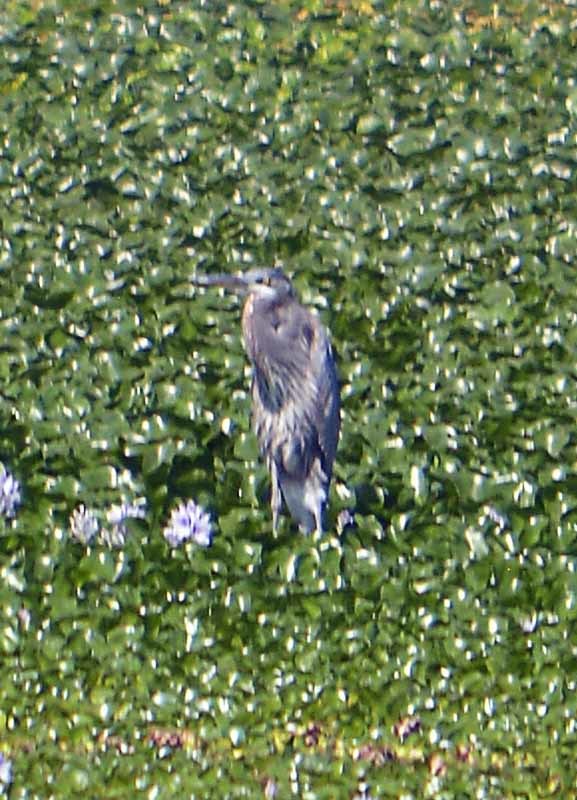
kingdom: Animalia
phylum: Chordata
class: Aves
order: Pelecaniformes
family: Ardeidae
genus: Ardea
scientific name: Ardea herodias
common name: Great blue heron
